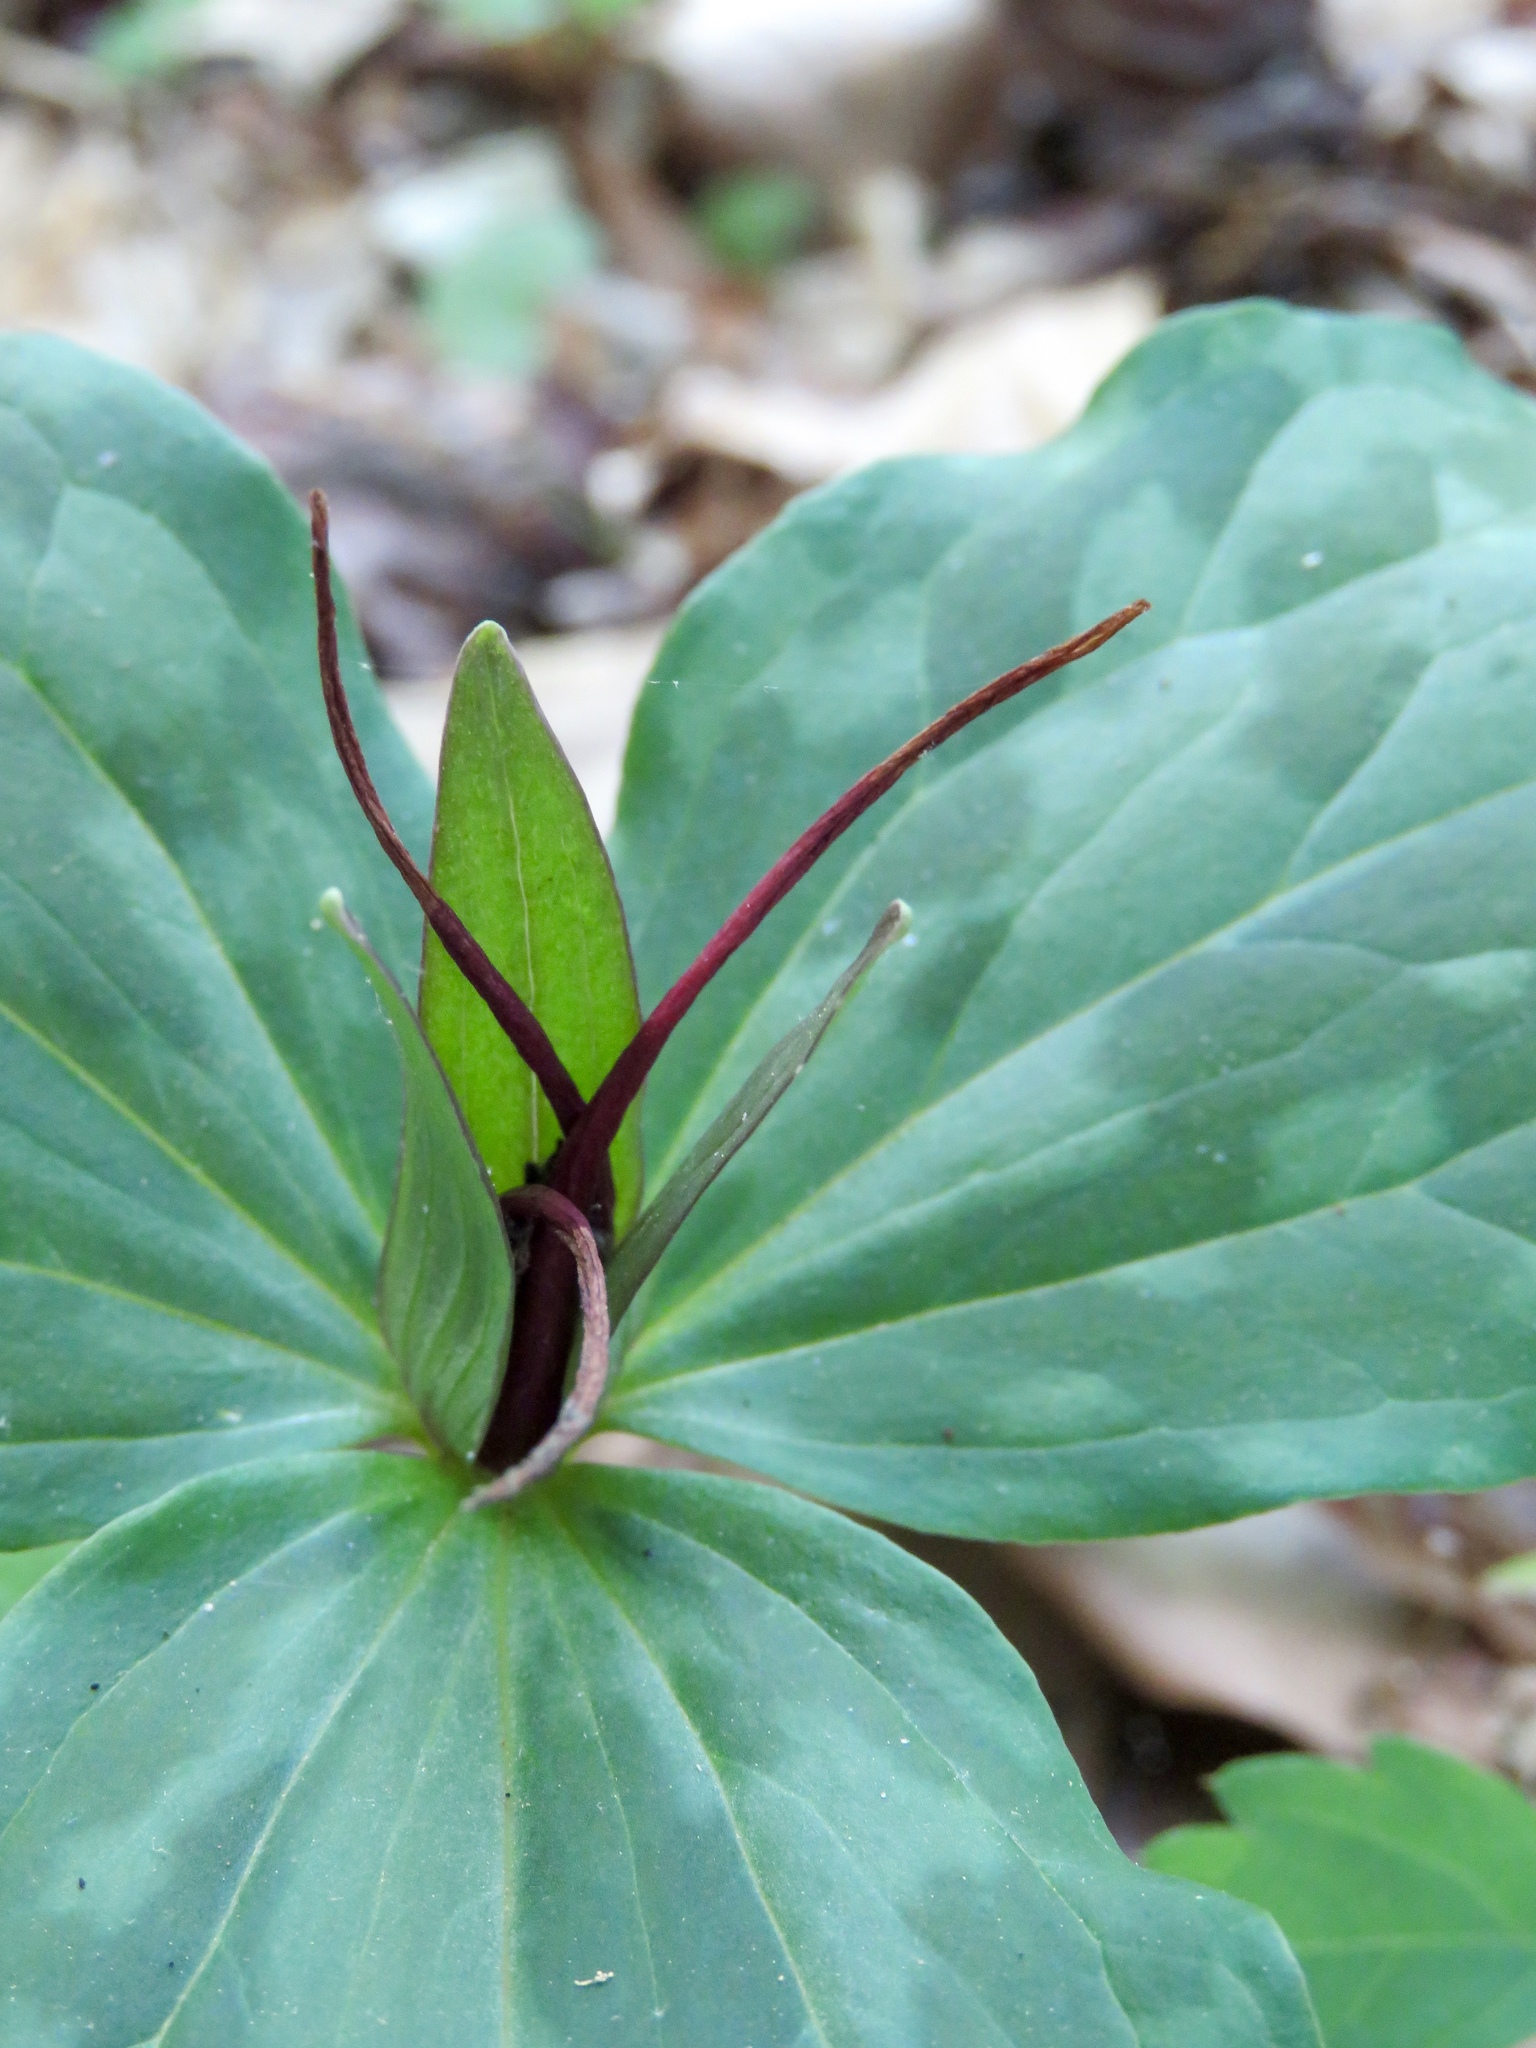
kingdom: Plantae
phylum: Tracheophyta
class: Liliopsida
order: Liliales
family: Melanthiaceae
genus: Trillium
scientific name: Trillium gracile
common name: Graceful trillium
